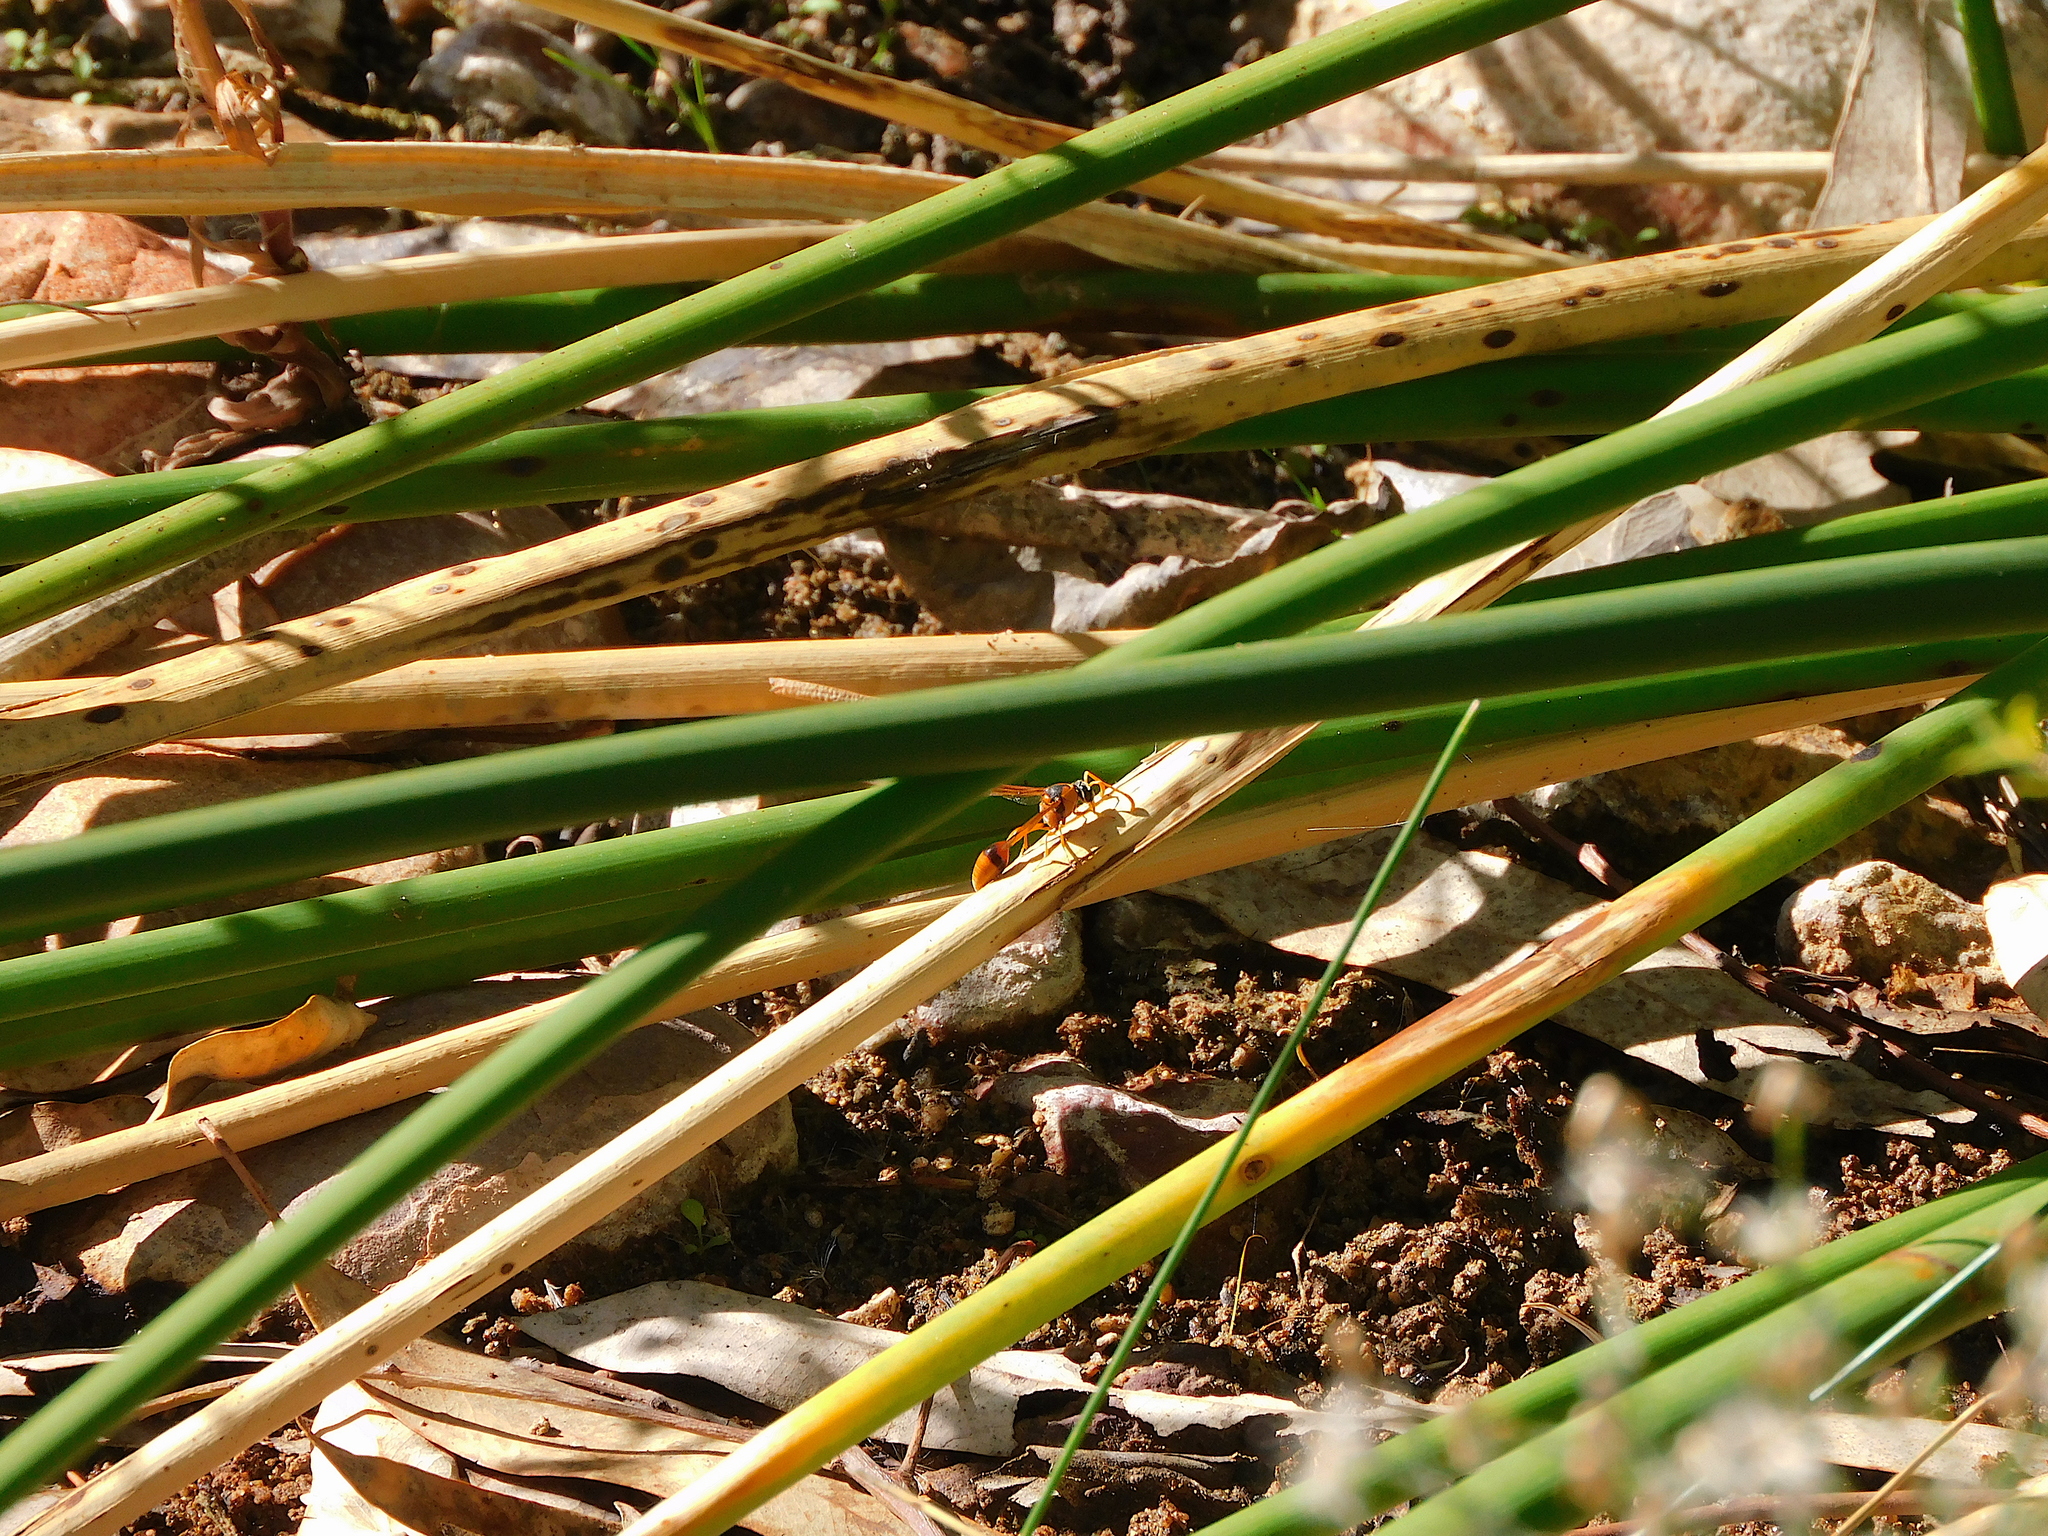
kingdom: Animalia
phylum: Arthropoda
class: Insecta
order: Hymenoptera
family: Eumenidae
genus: Delta
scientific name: Delta philanthes
